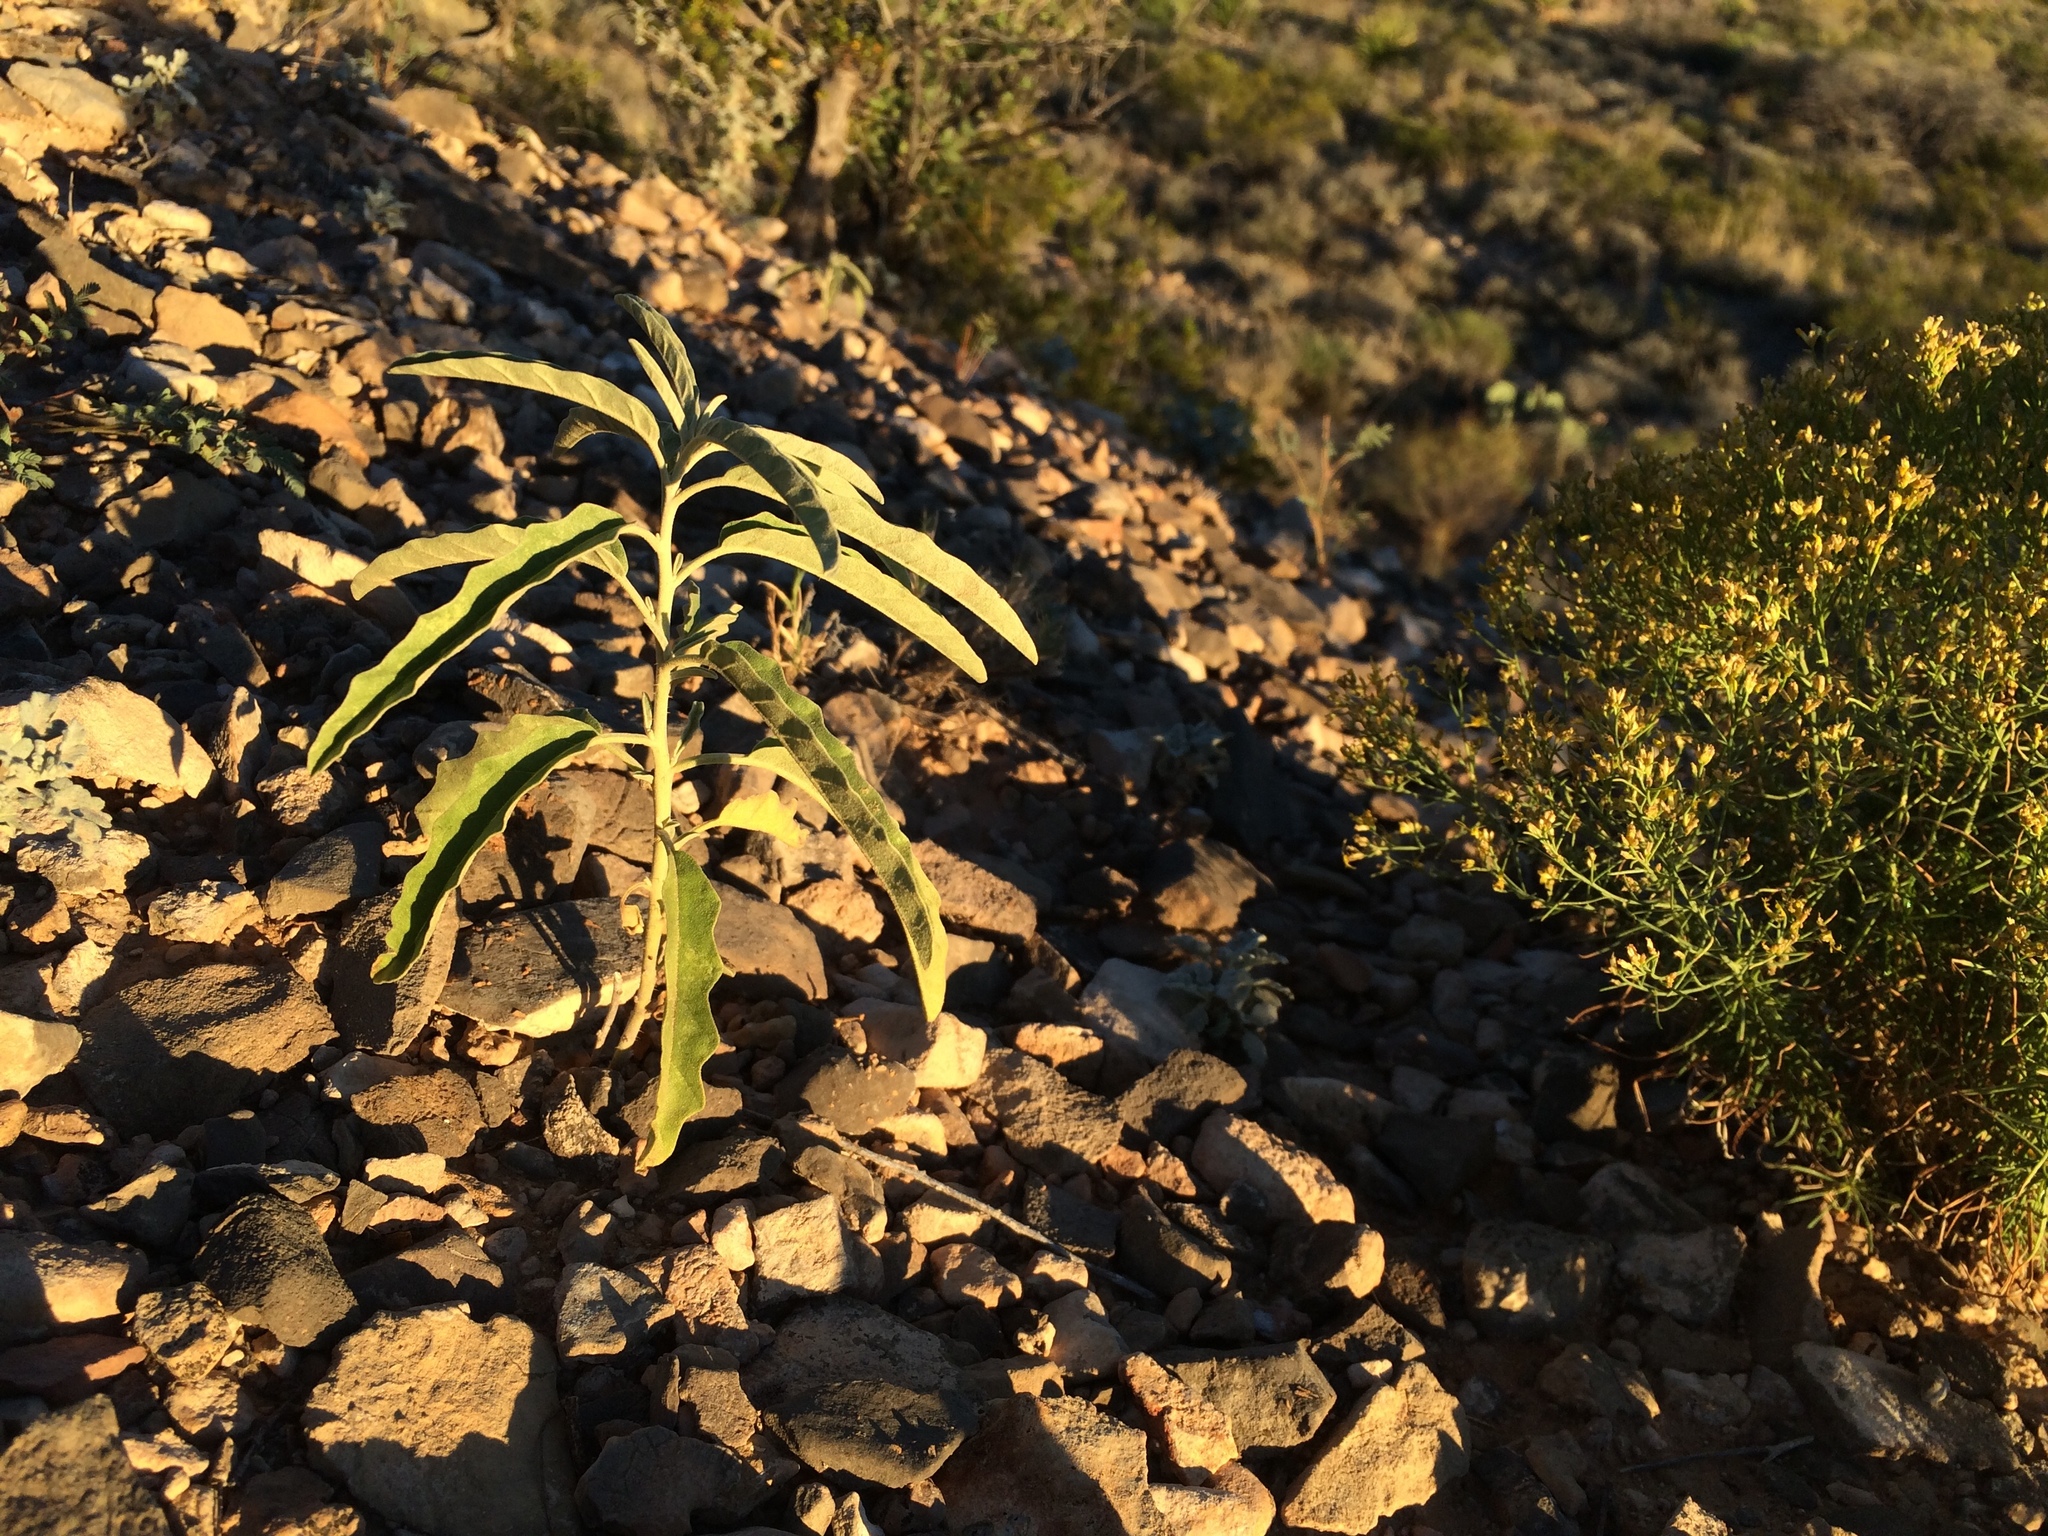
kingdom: Plantae
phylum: Tracheophyta
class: Magnoliopsida
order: Solanales
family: Solanaceae
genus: Solanum
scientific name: Solanum elaeagnifolium
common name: Silverleaf nightshade
